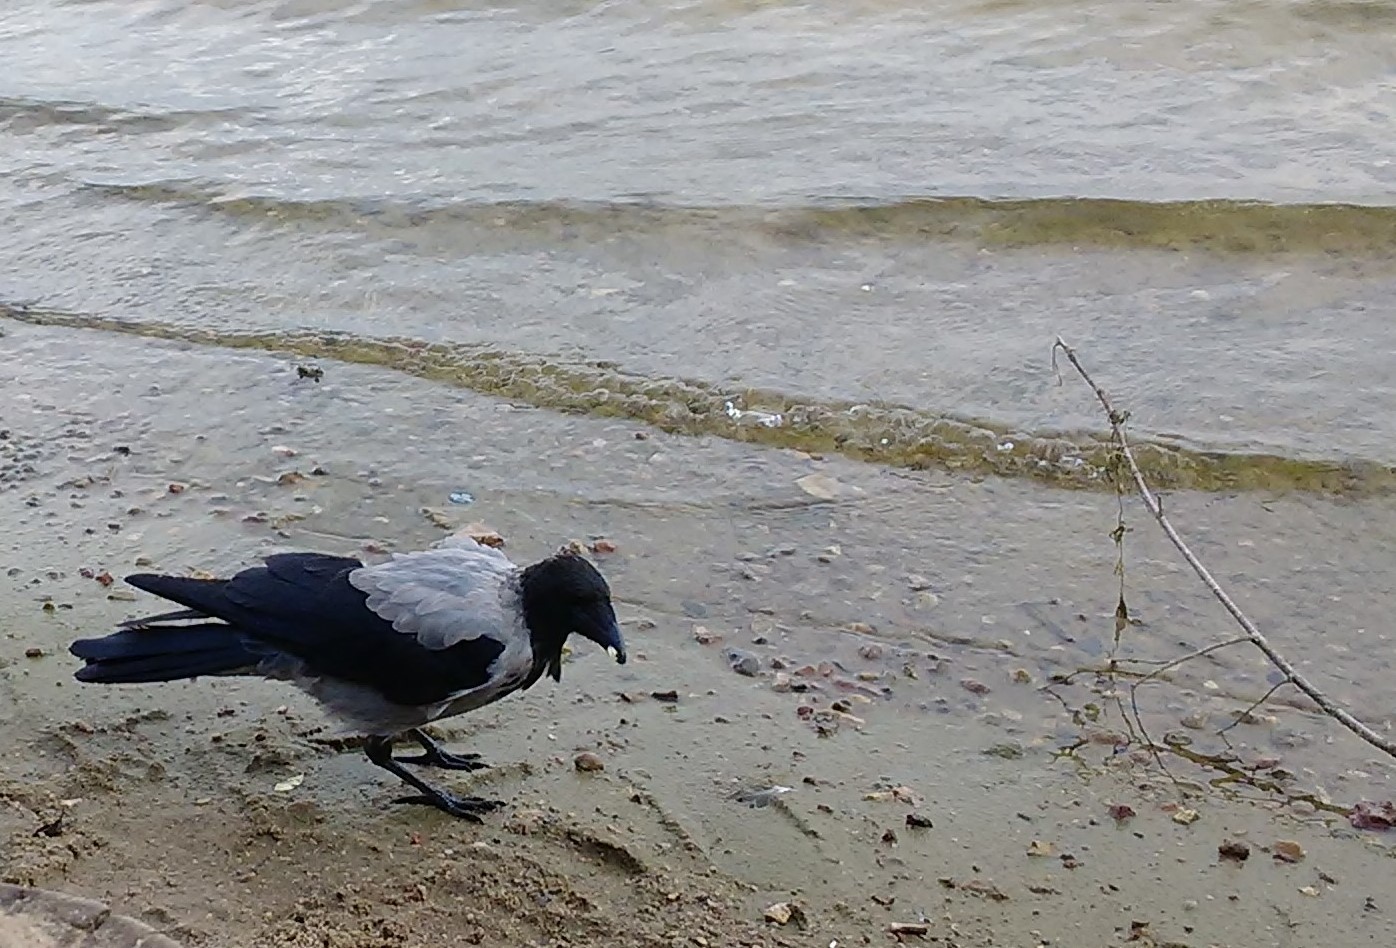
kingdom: Animalia
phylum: Chordata
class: Aves
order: Passeriformes
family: Corvidae
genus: Corvus
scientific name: Corvus cornix
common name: Hooded crow
